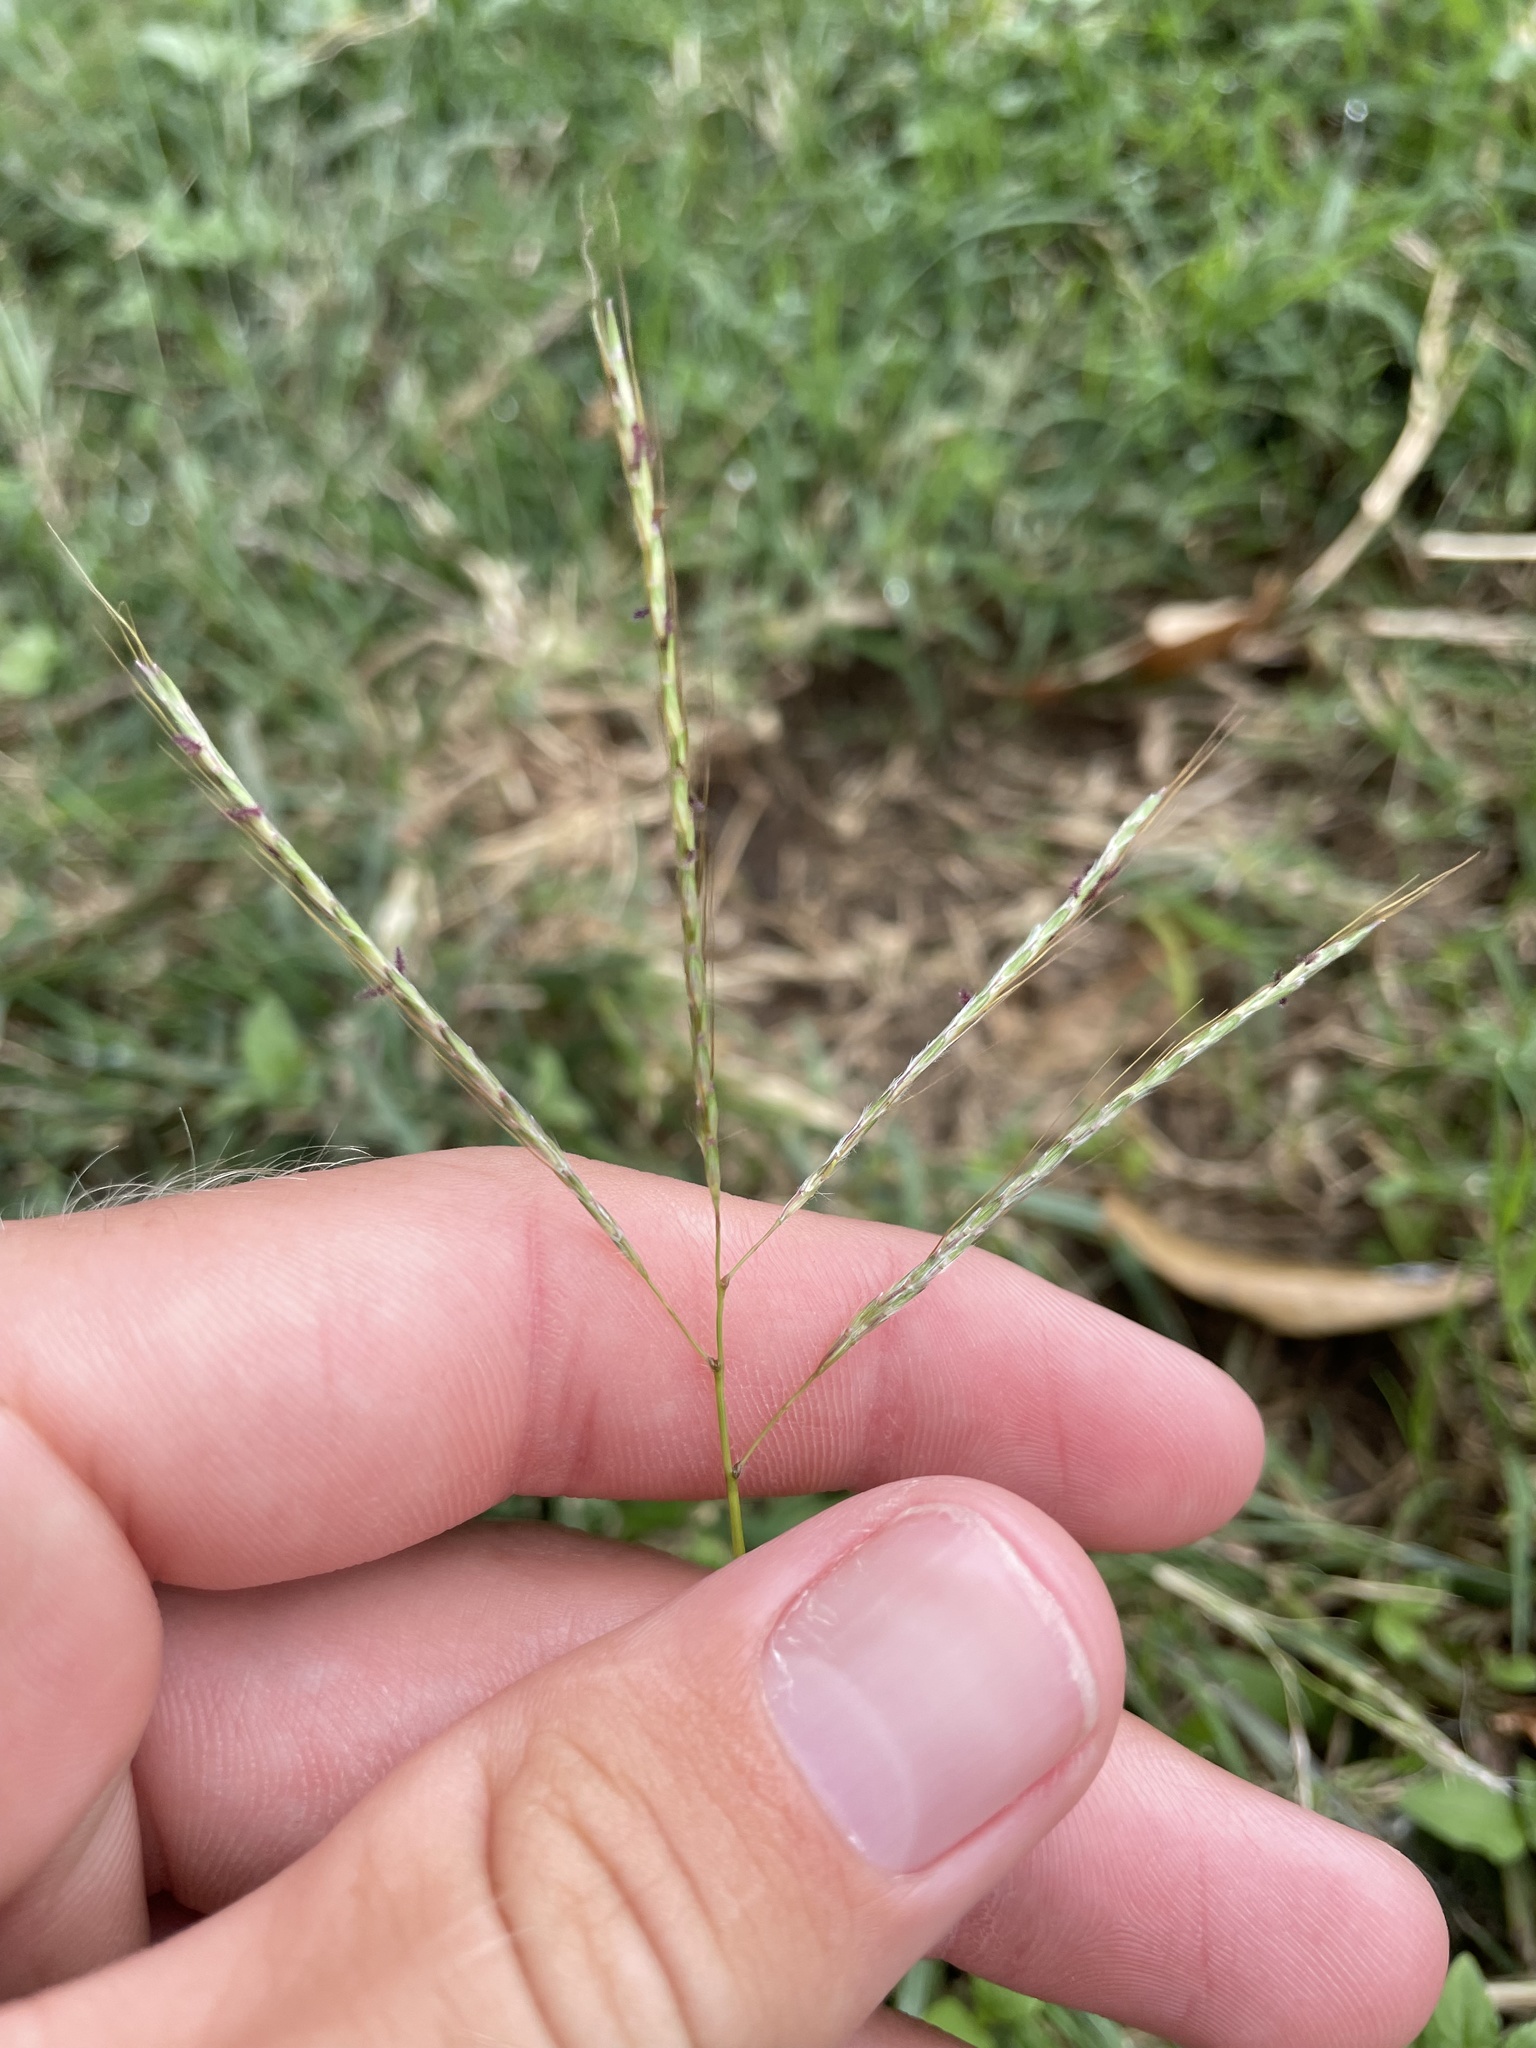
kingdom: Plantae
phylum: Tracheophyta
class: Liliopsida
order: Poales
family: Poaceae
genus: Bothriochloa
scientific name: Bothriochloa ischaemum
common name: Yellow bluestem
